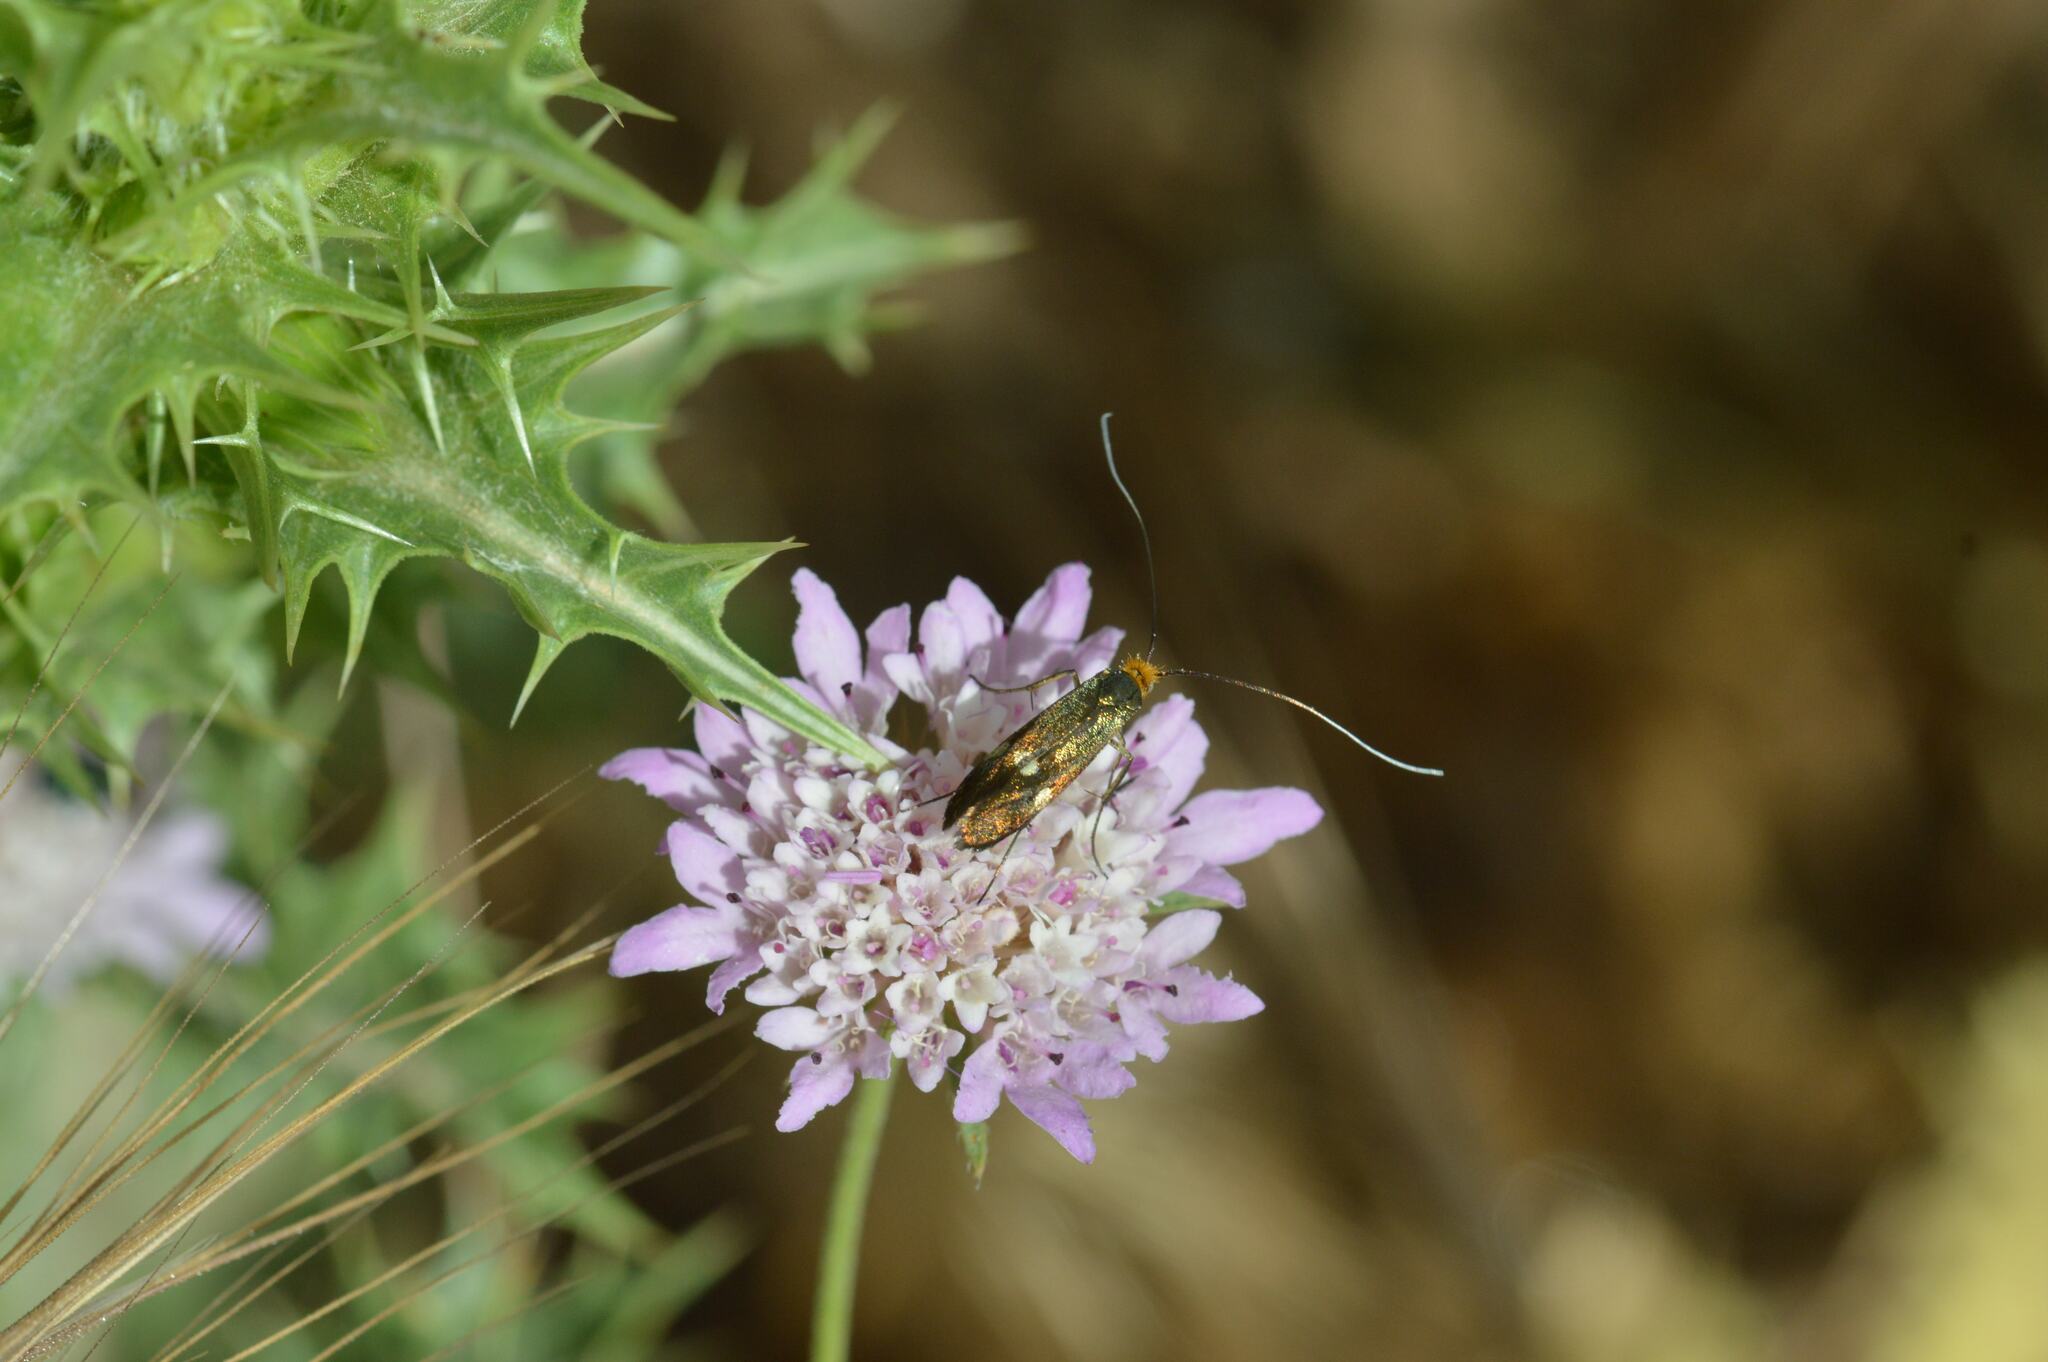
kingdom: Animalia
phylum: Arthropoda
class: Insecta
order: Lepidoptera
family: Adelidae
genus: Nemophora
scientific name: Nemophora raddaella
